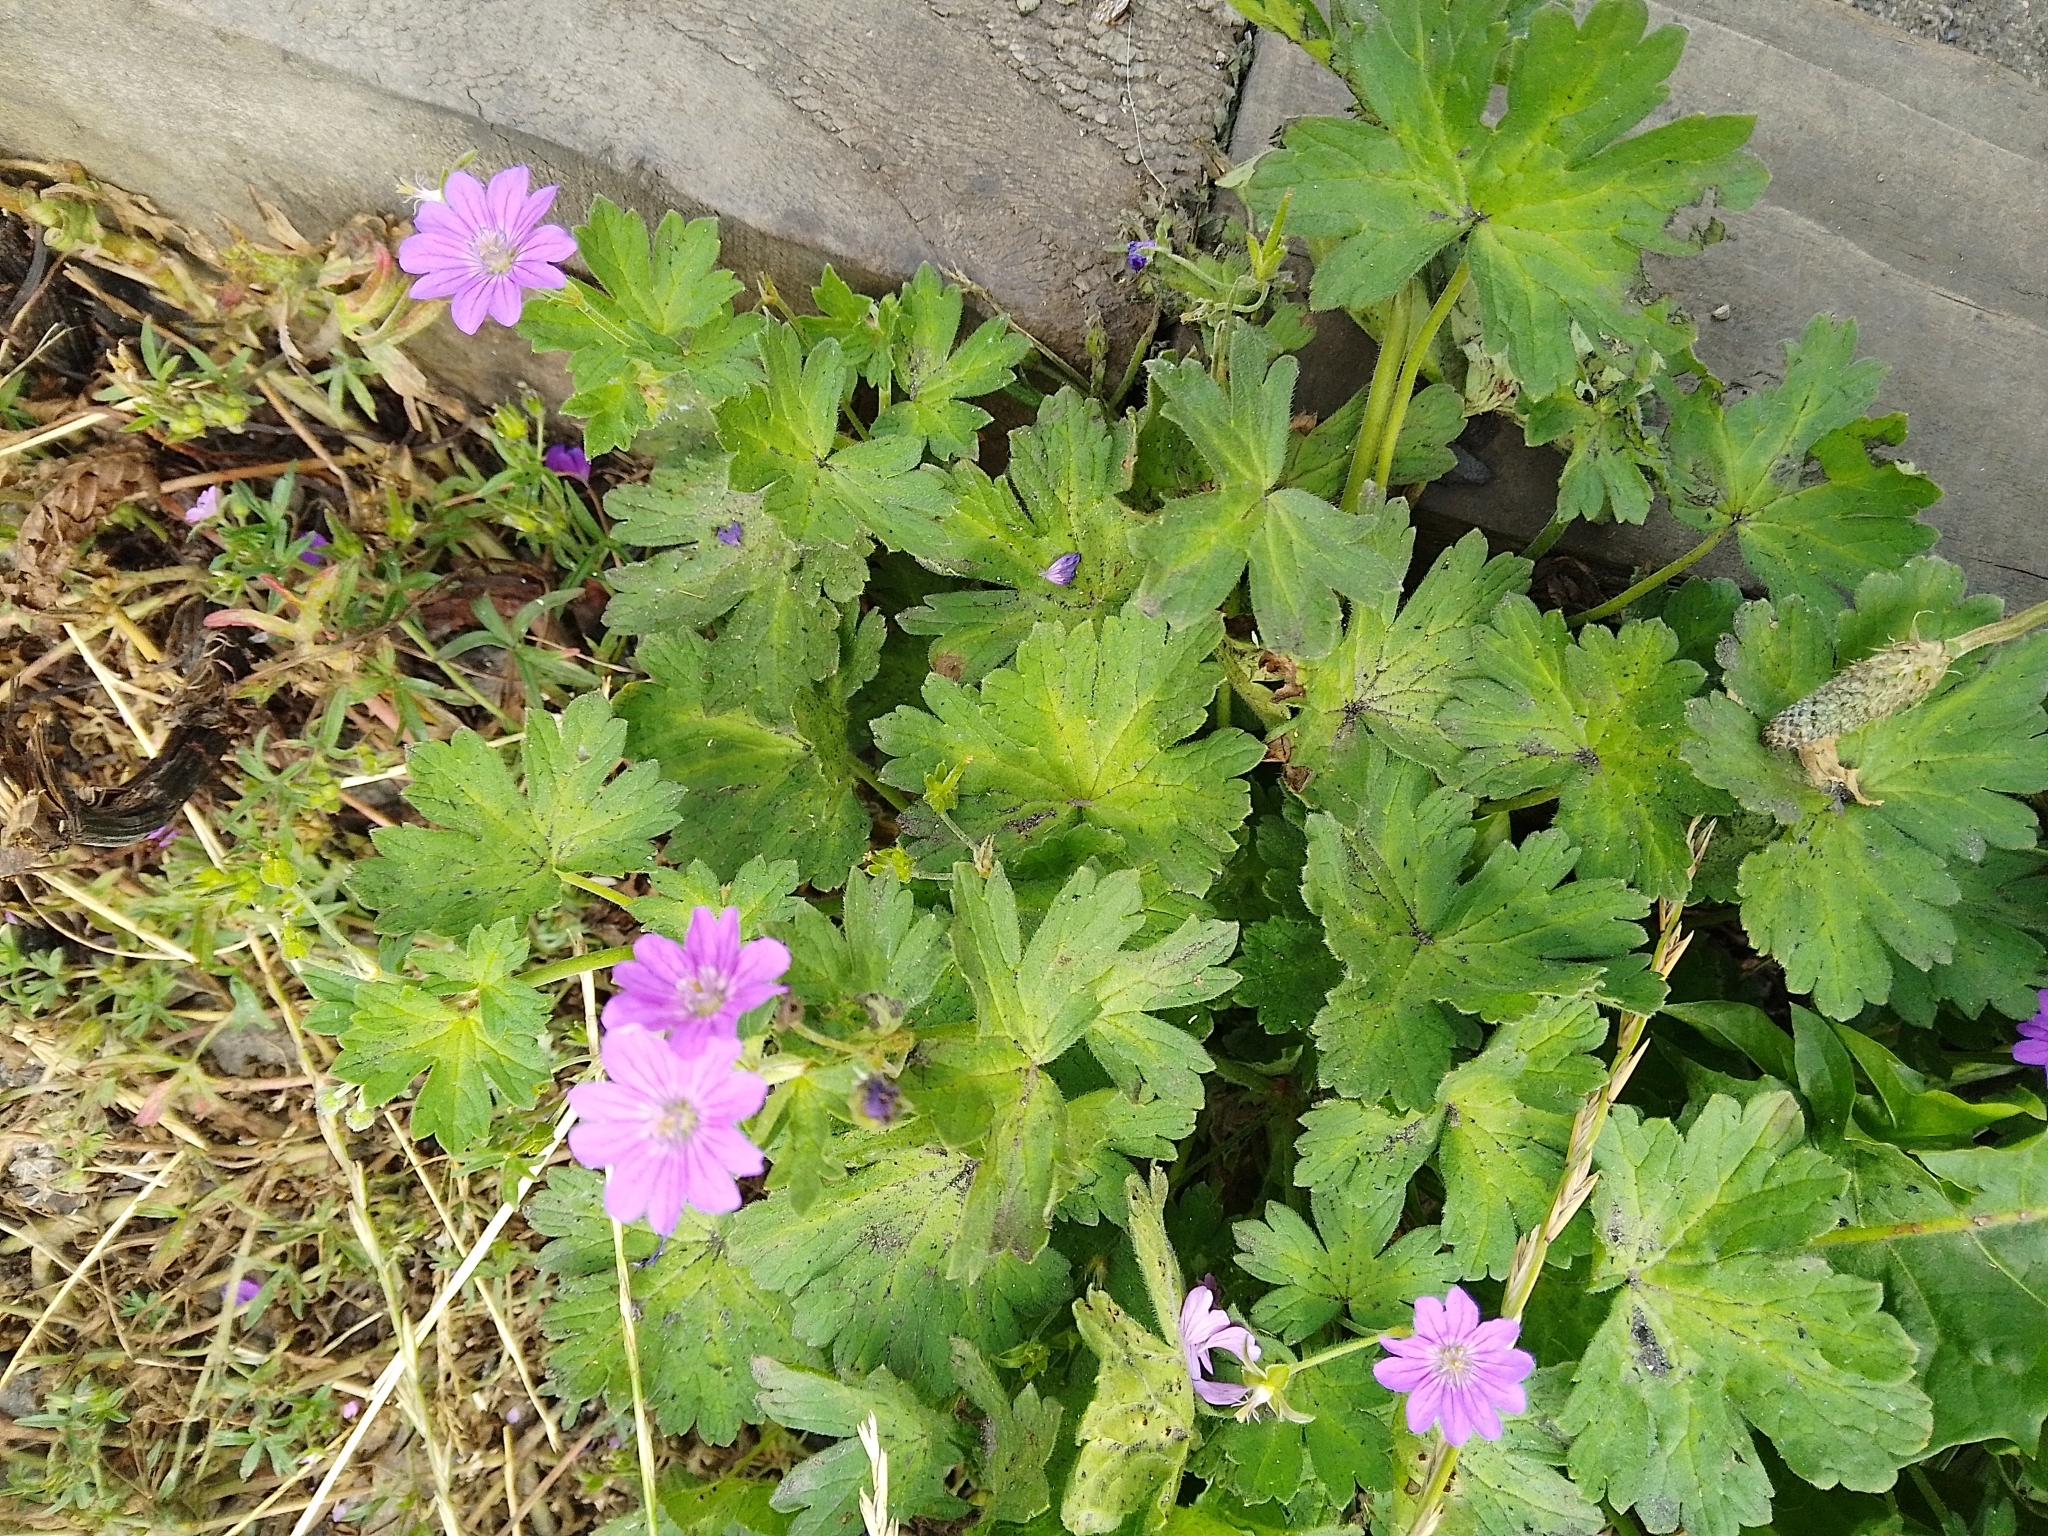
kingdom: Plantae
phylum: Tracheophyta
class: Magnoliopsida
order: Geraniales
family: Geraniaceae
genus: Geranium
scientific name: Geranium pyrenaicum
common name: Hedgerow crane's-bill
